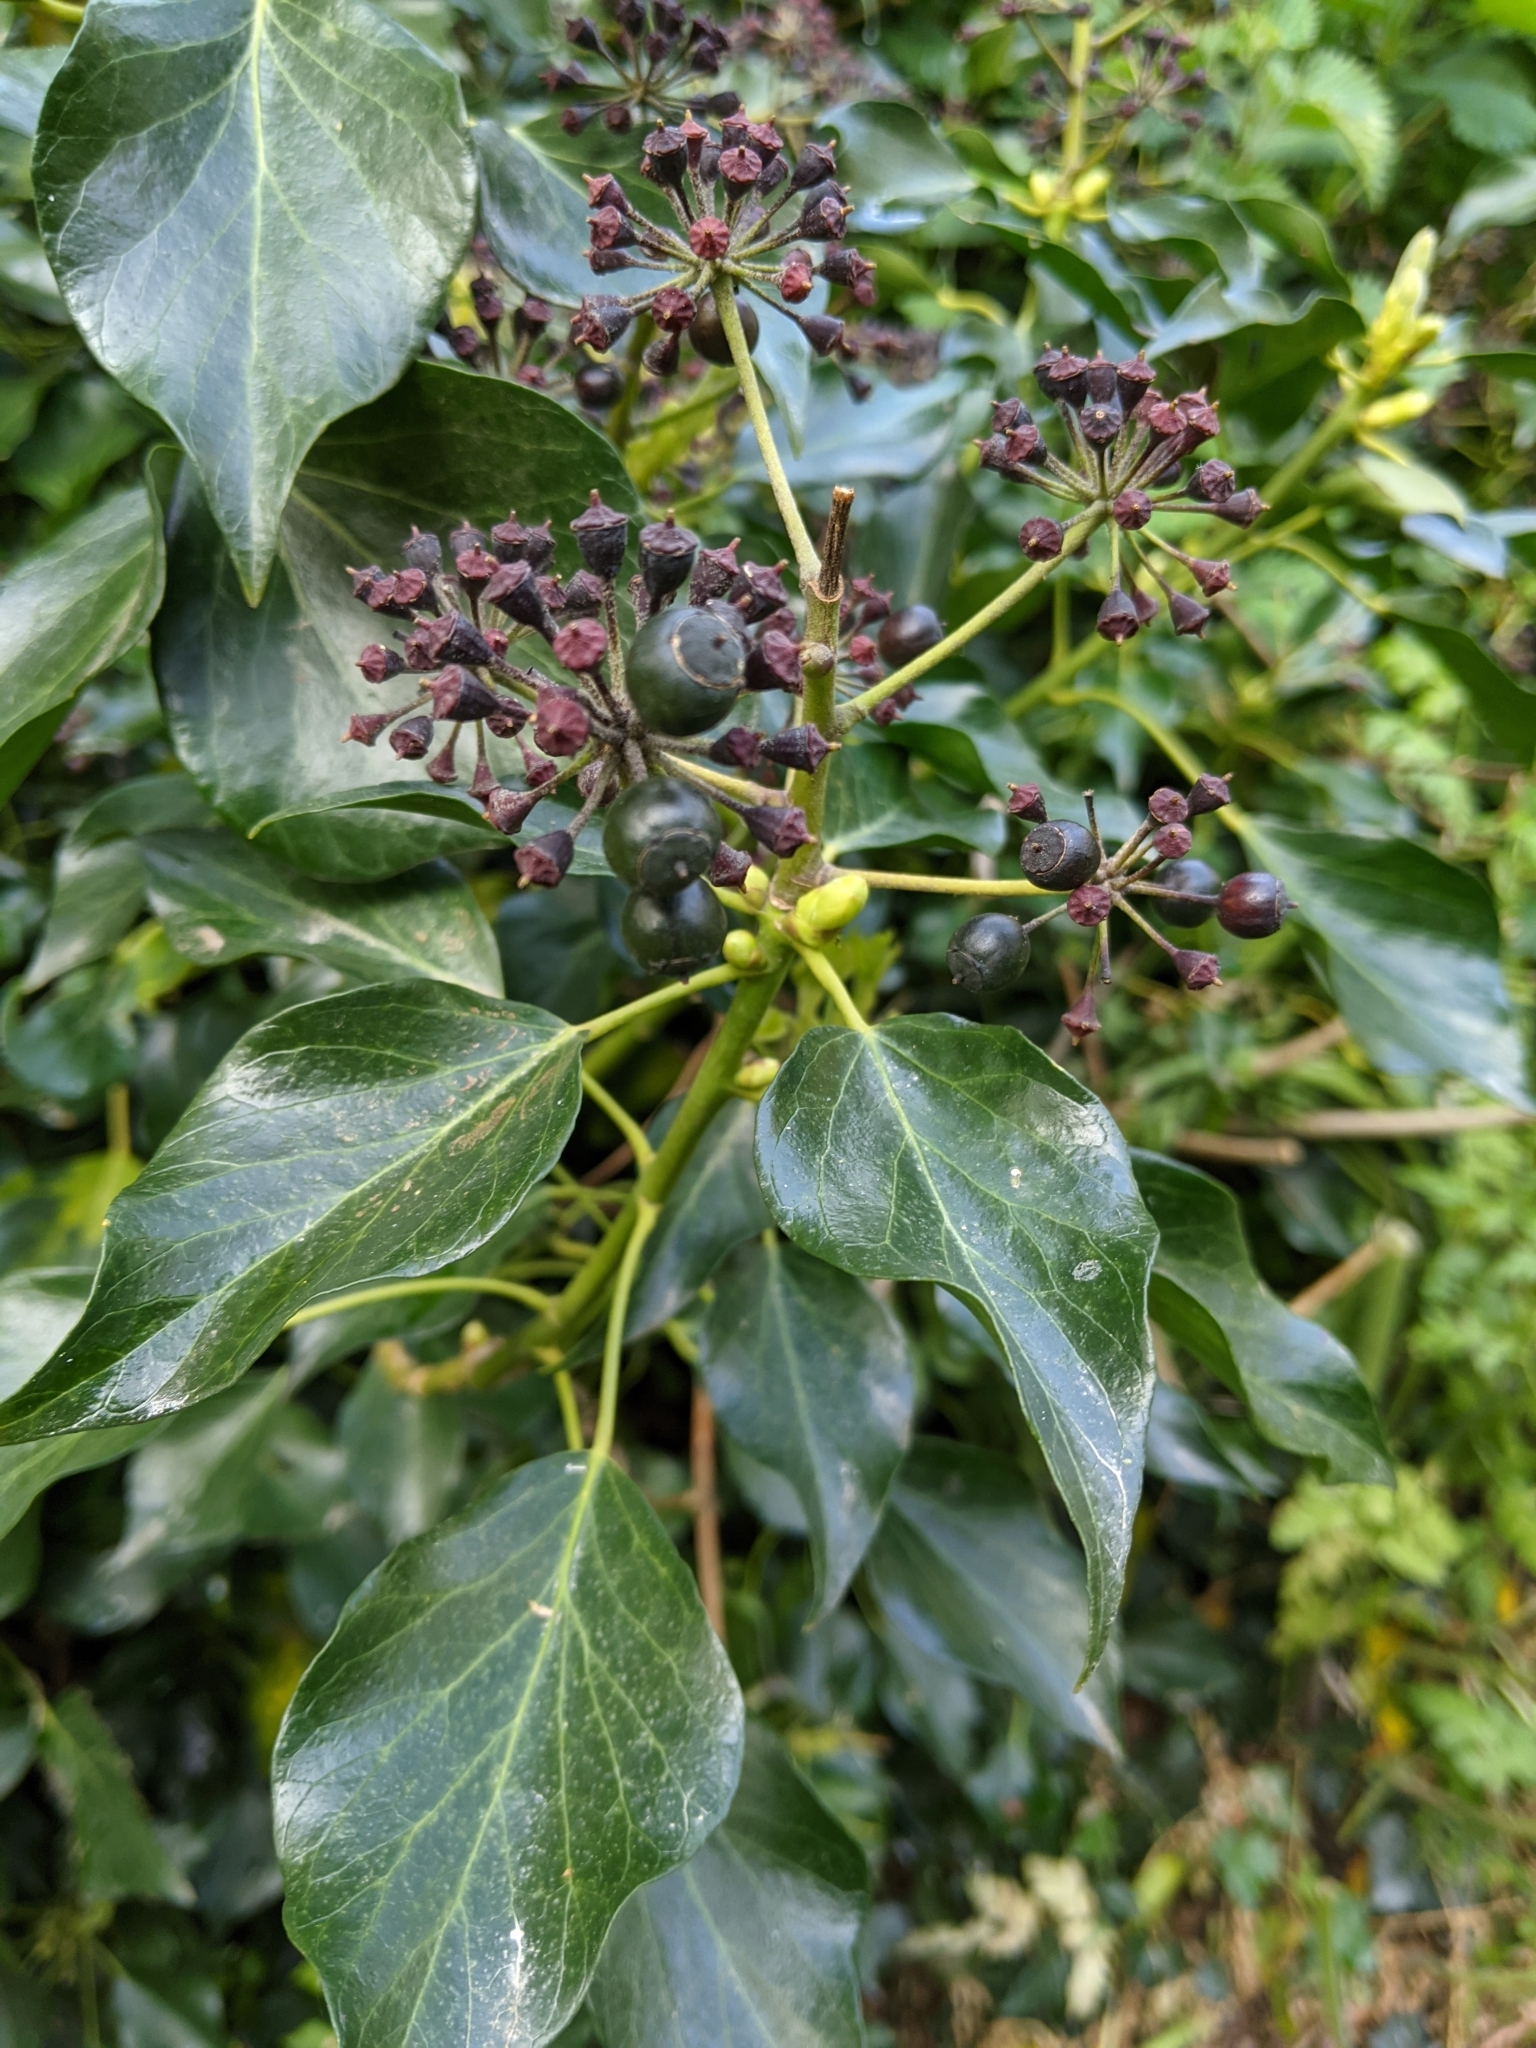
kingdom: Plantae
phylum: Tracheophyta
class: Magnoliopsida
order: Apiales
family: Araliaceae
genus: Hedera
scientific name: Hedera helix
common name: Ivy
